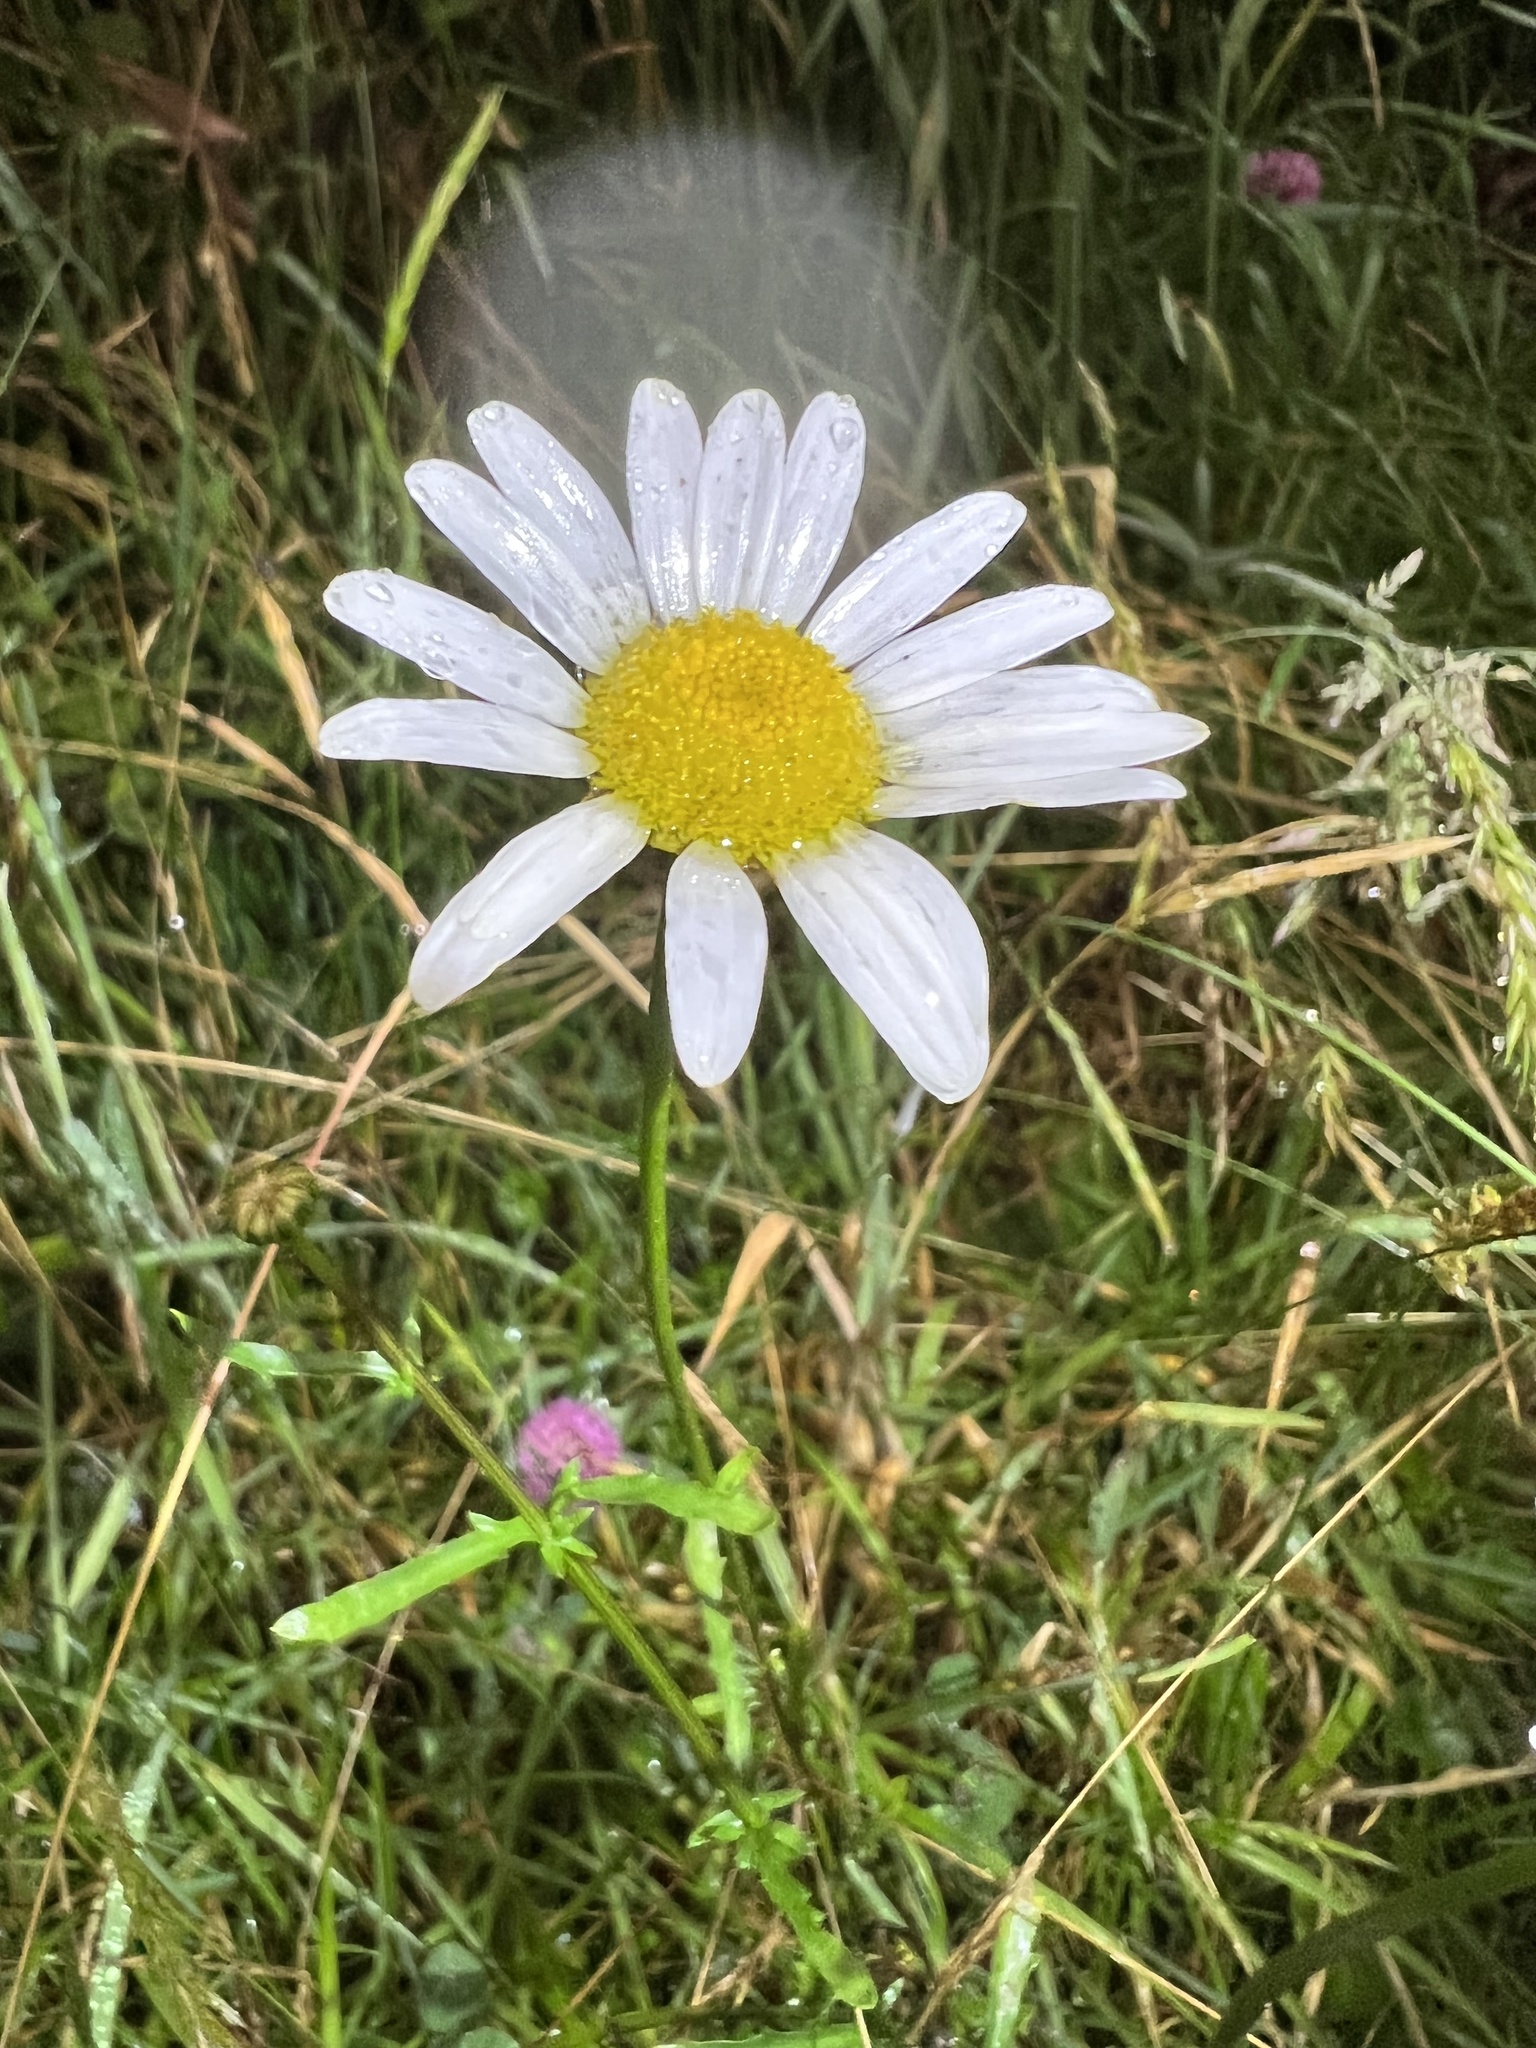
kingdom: Plantae
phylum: Tracheophyta
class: Magnoliopsida
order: Asterales
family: Asteraceae
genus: Leucanthemum
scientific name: Leucanthemum vulgare
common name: Oxeye daisy
